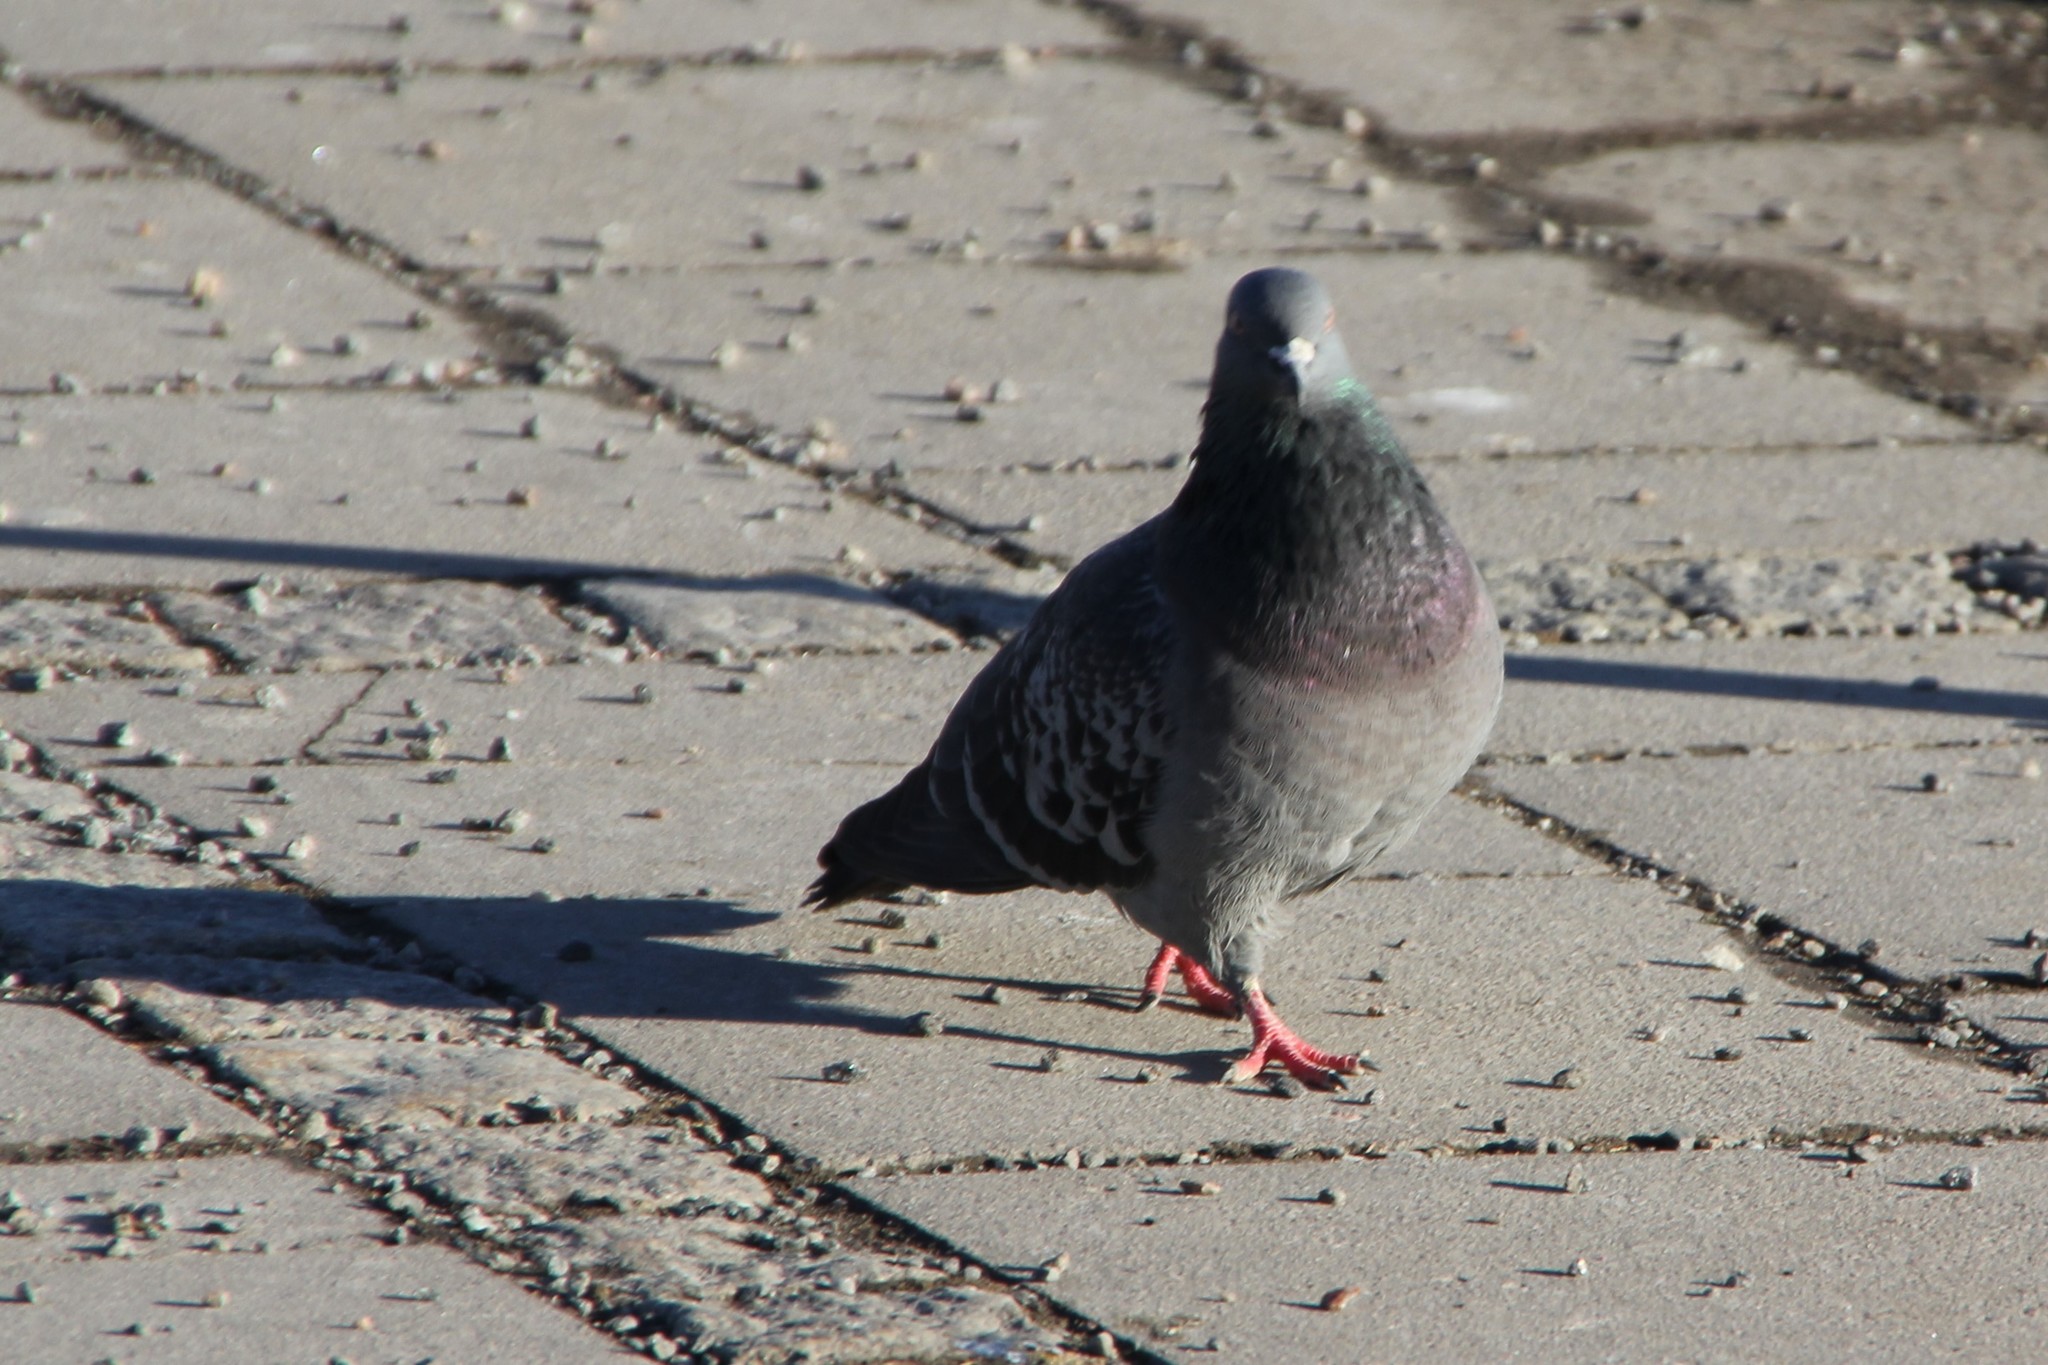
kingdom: Animalia
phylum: Chordata
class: Aves
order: Columbiformes
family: Columbidae
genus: Columba
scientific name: Columba livia
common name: Rock pigeon
